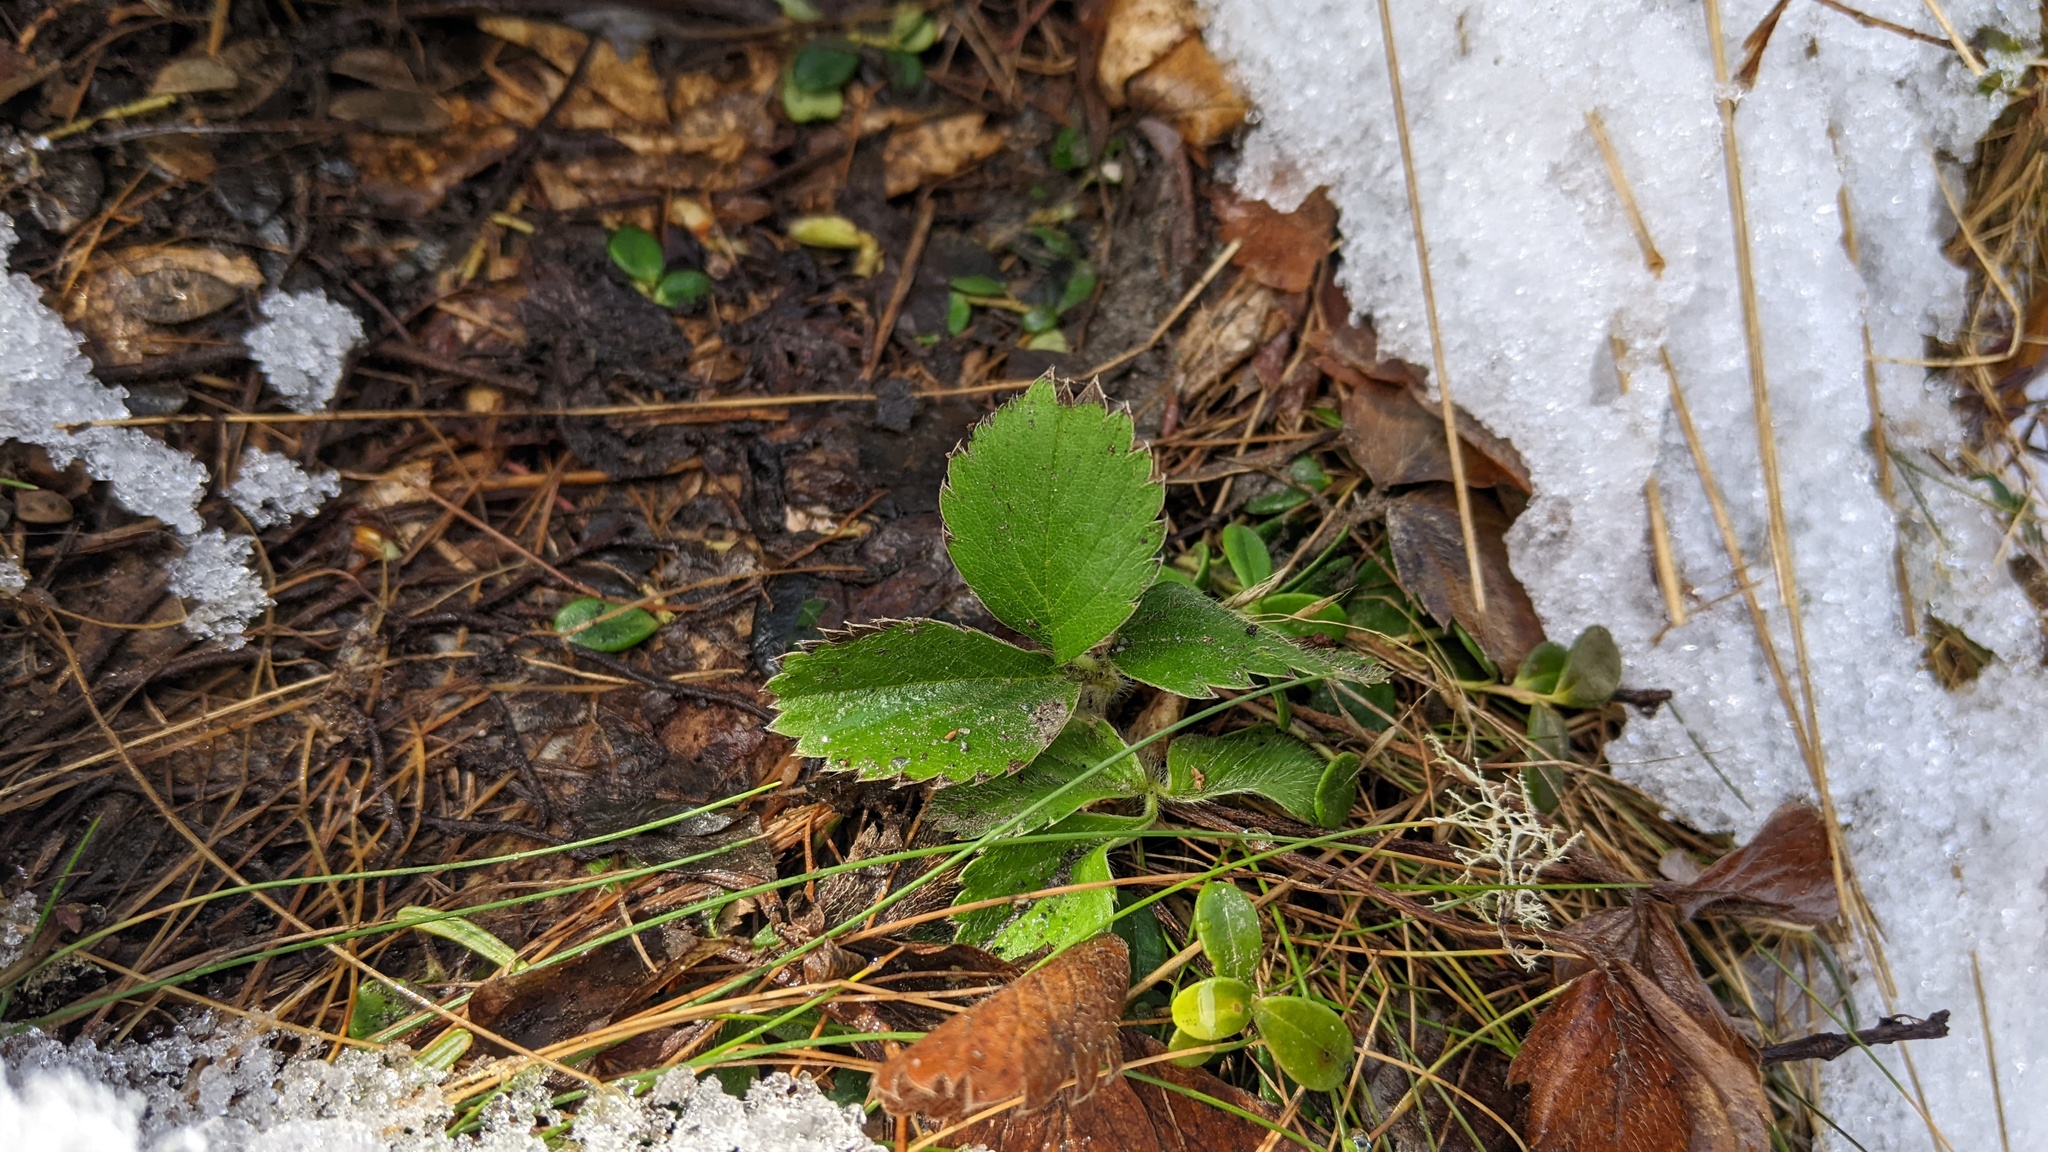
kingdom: Plantae
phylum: Tracheophyta
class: Magnoliopsida
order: Rosales
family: Rosaceae
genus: Fragaria
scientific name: Fragaria virginiana
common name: Thickleaved wild strawberry
